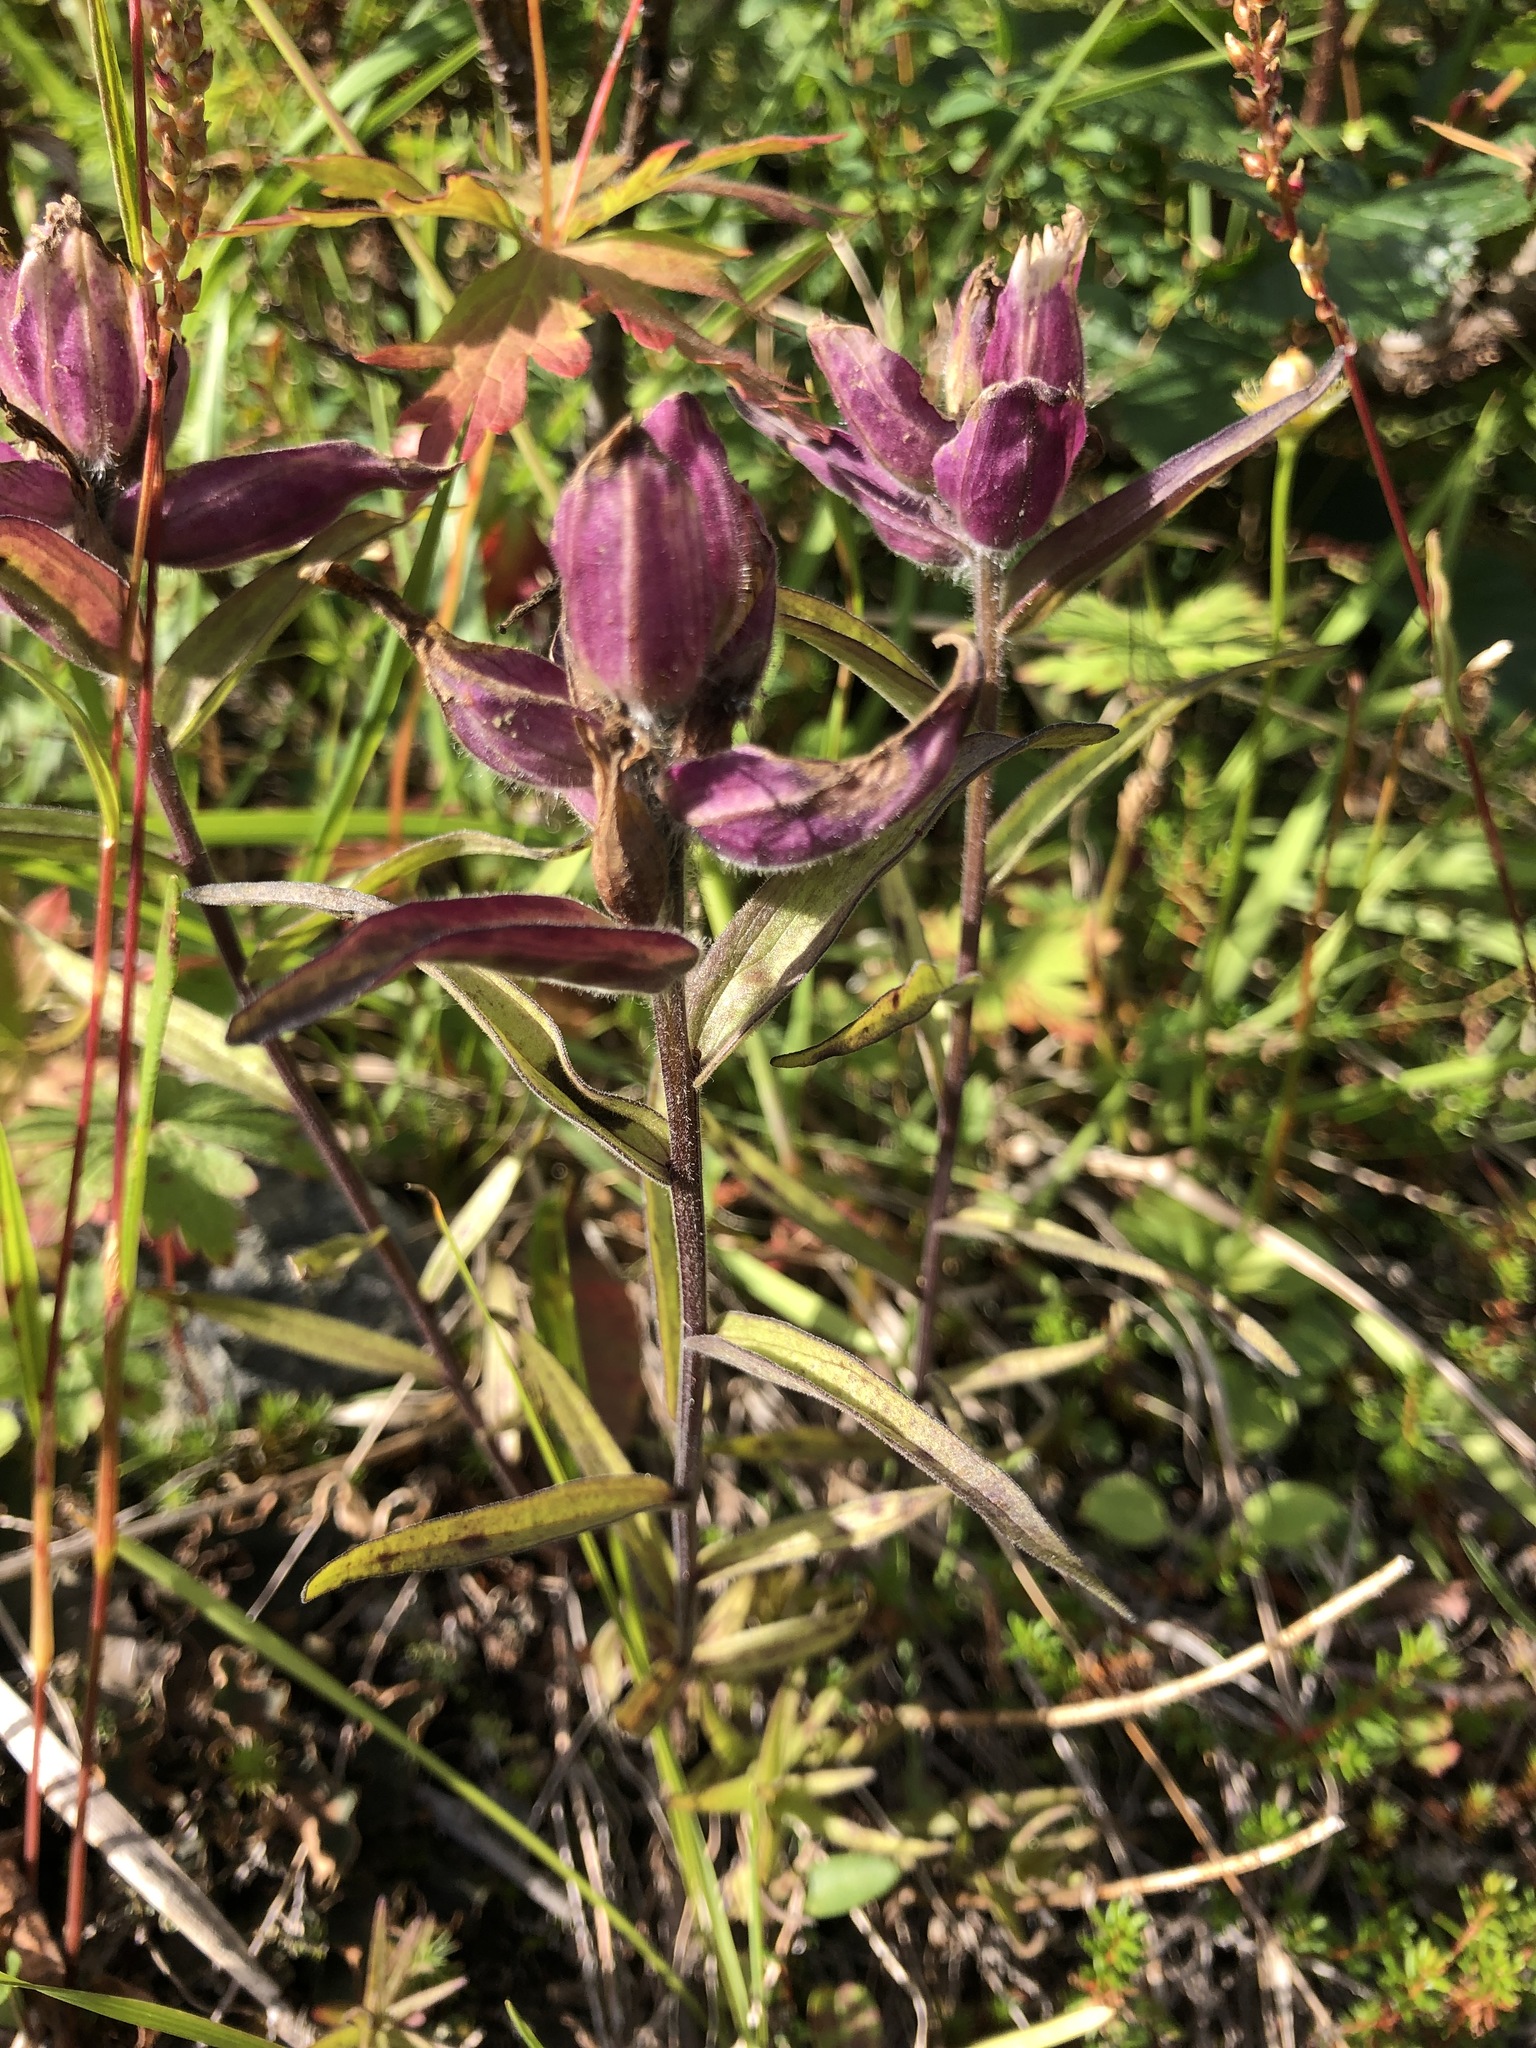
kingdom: Plantae
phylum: Tracheophyta
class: Magnoliopsida
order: Lamiales
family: Orobanchaceae
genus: Castilleja
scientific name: Castilleja arctica
